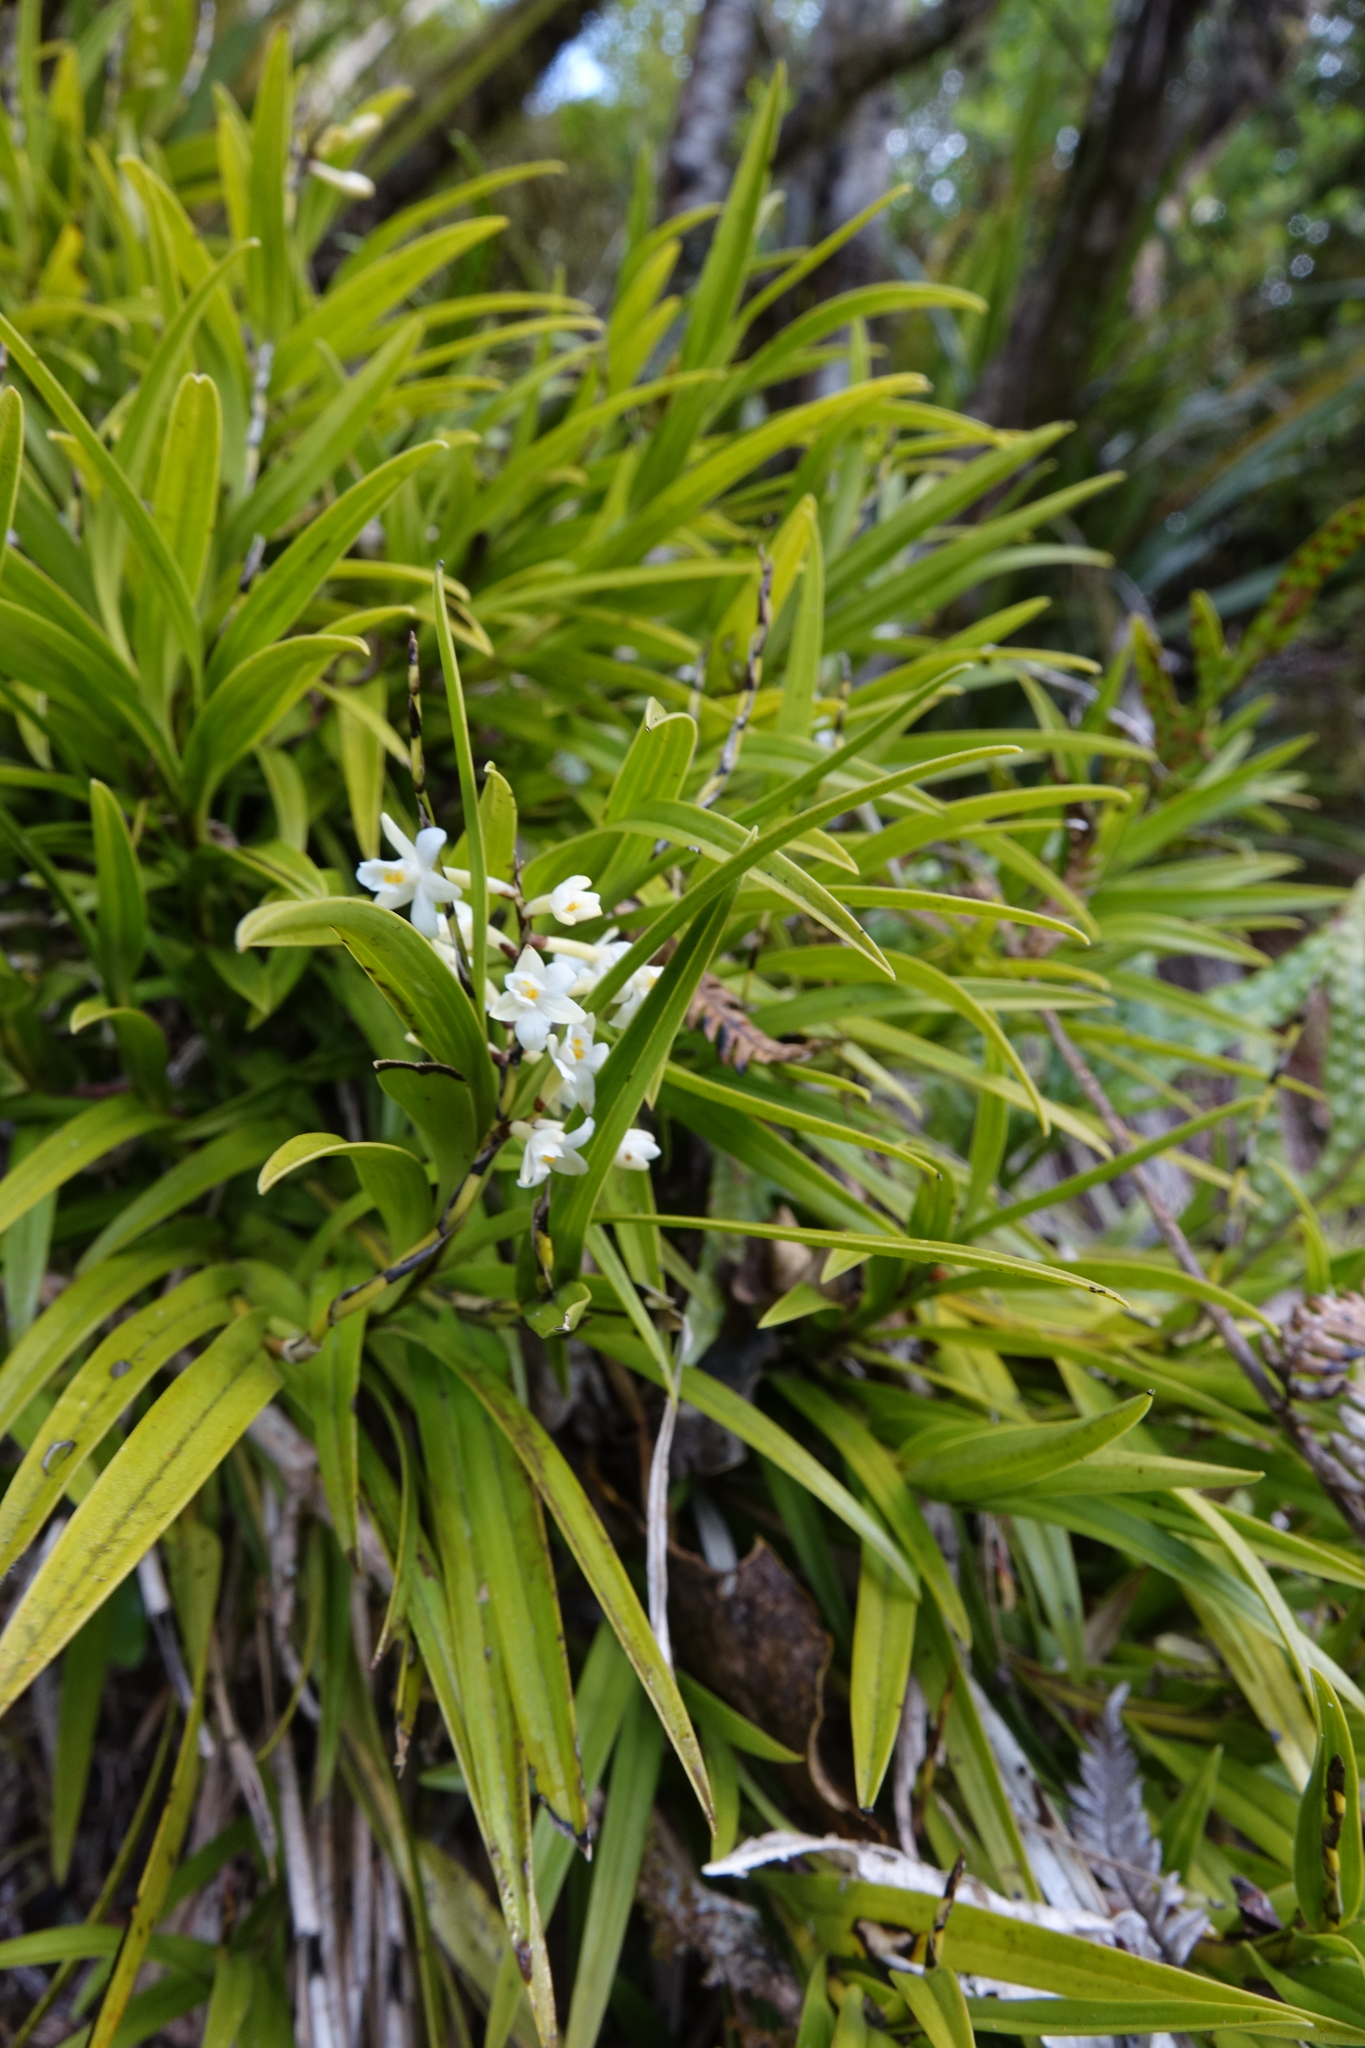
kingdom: Plantae
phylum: Tracheophyta
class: Liliopsida
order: Asparagales
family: Orchidaceae
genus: Earina
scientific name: Earina autumnalis
